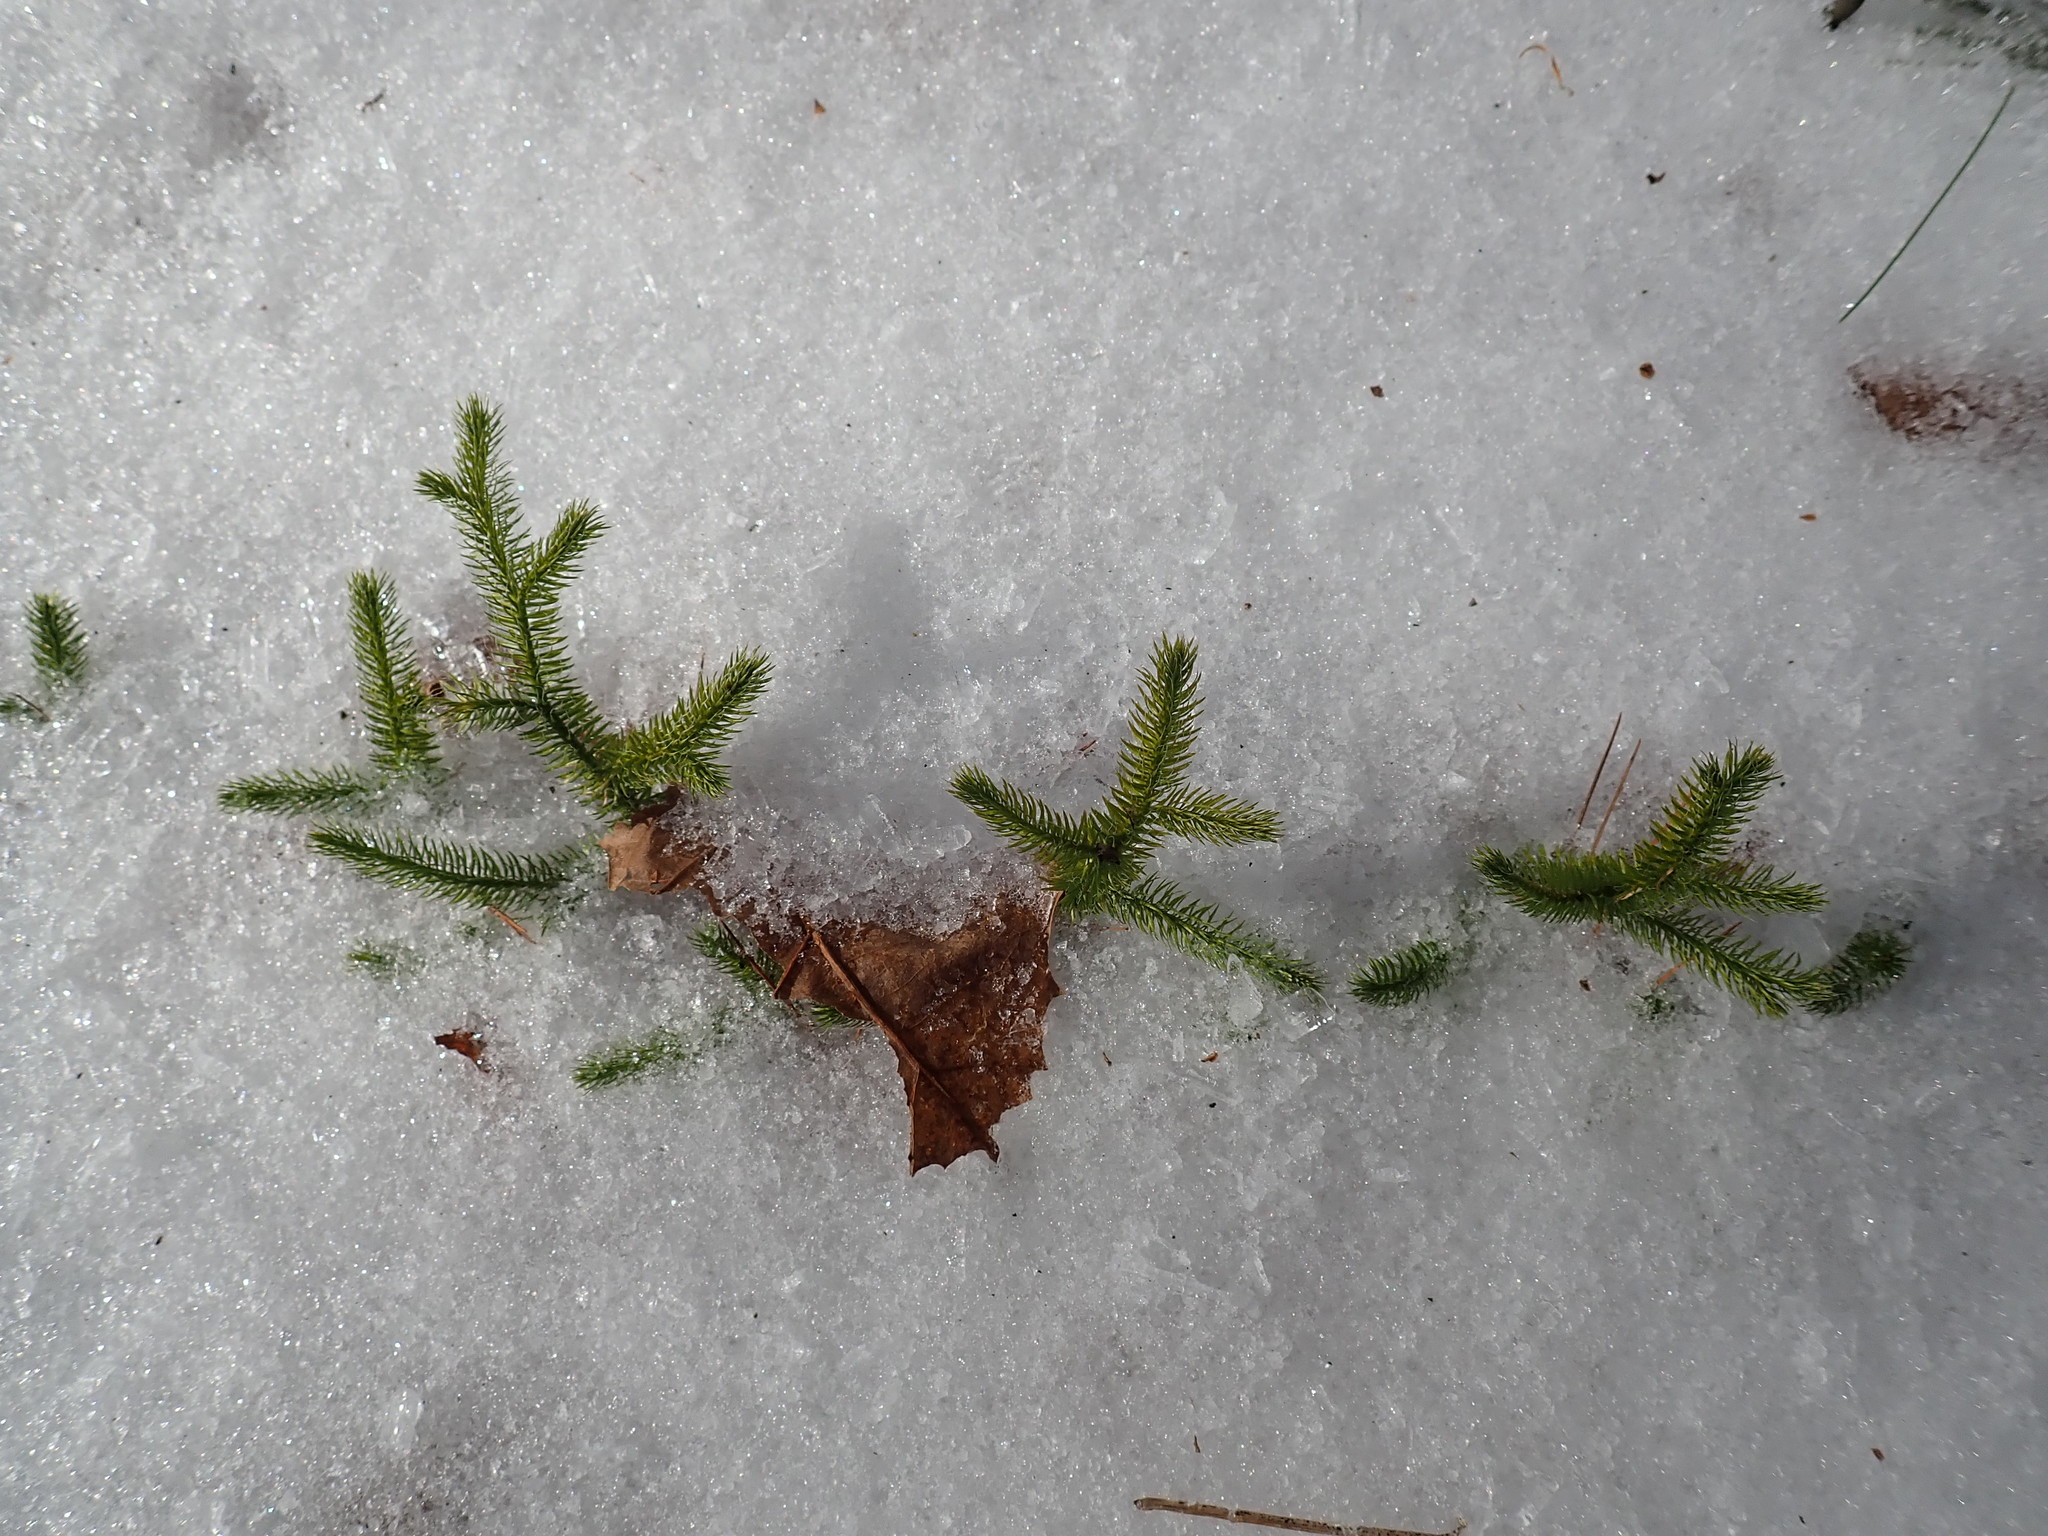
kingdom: Plantae
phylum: Tracheophyta
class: Lycopodiopsida
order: Lycopodiales
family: Lycopodiaceae
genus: Lycopodium
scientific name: Lycopodium clavatum
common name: Stag's-horn clubmoss
